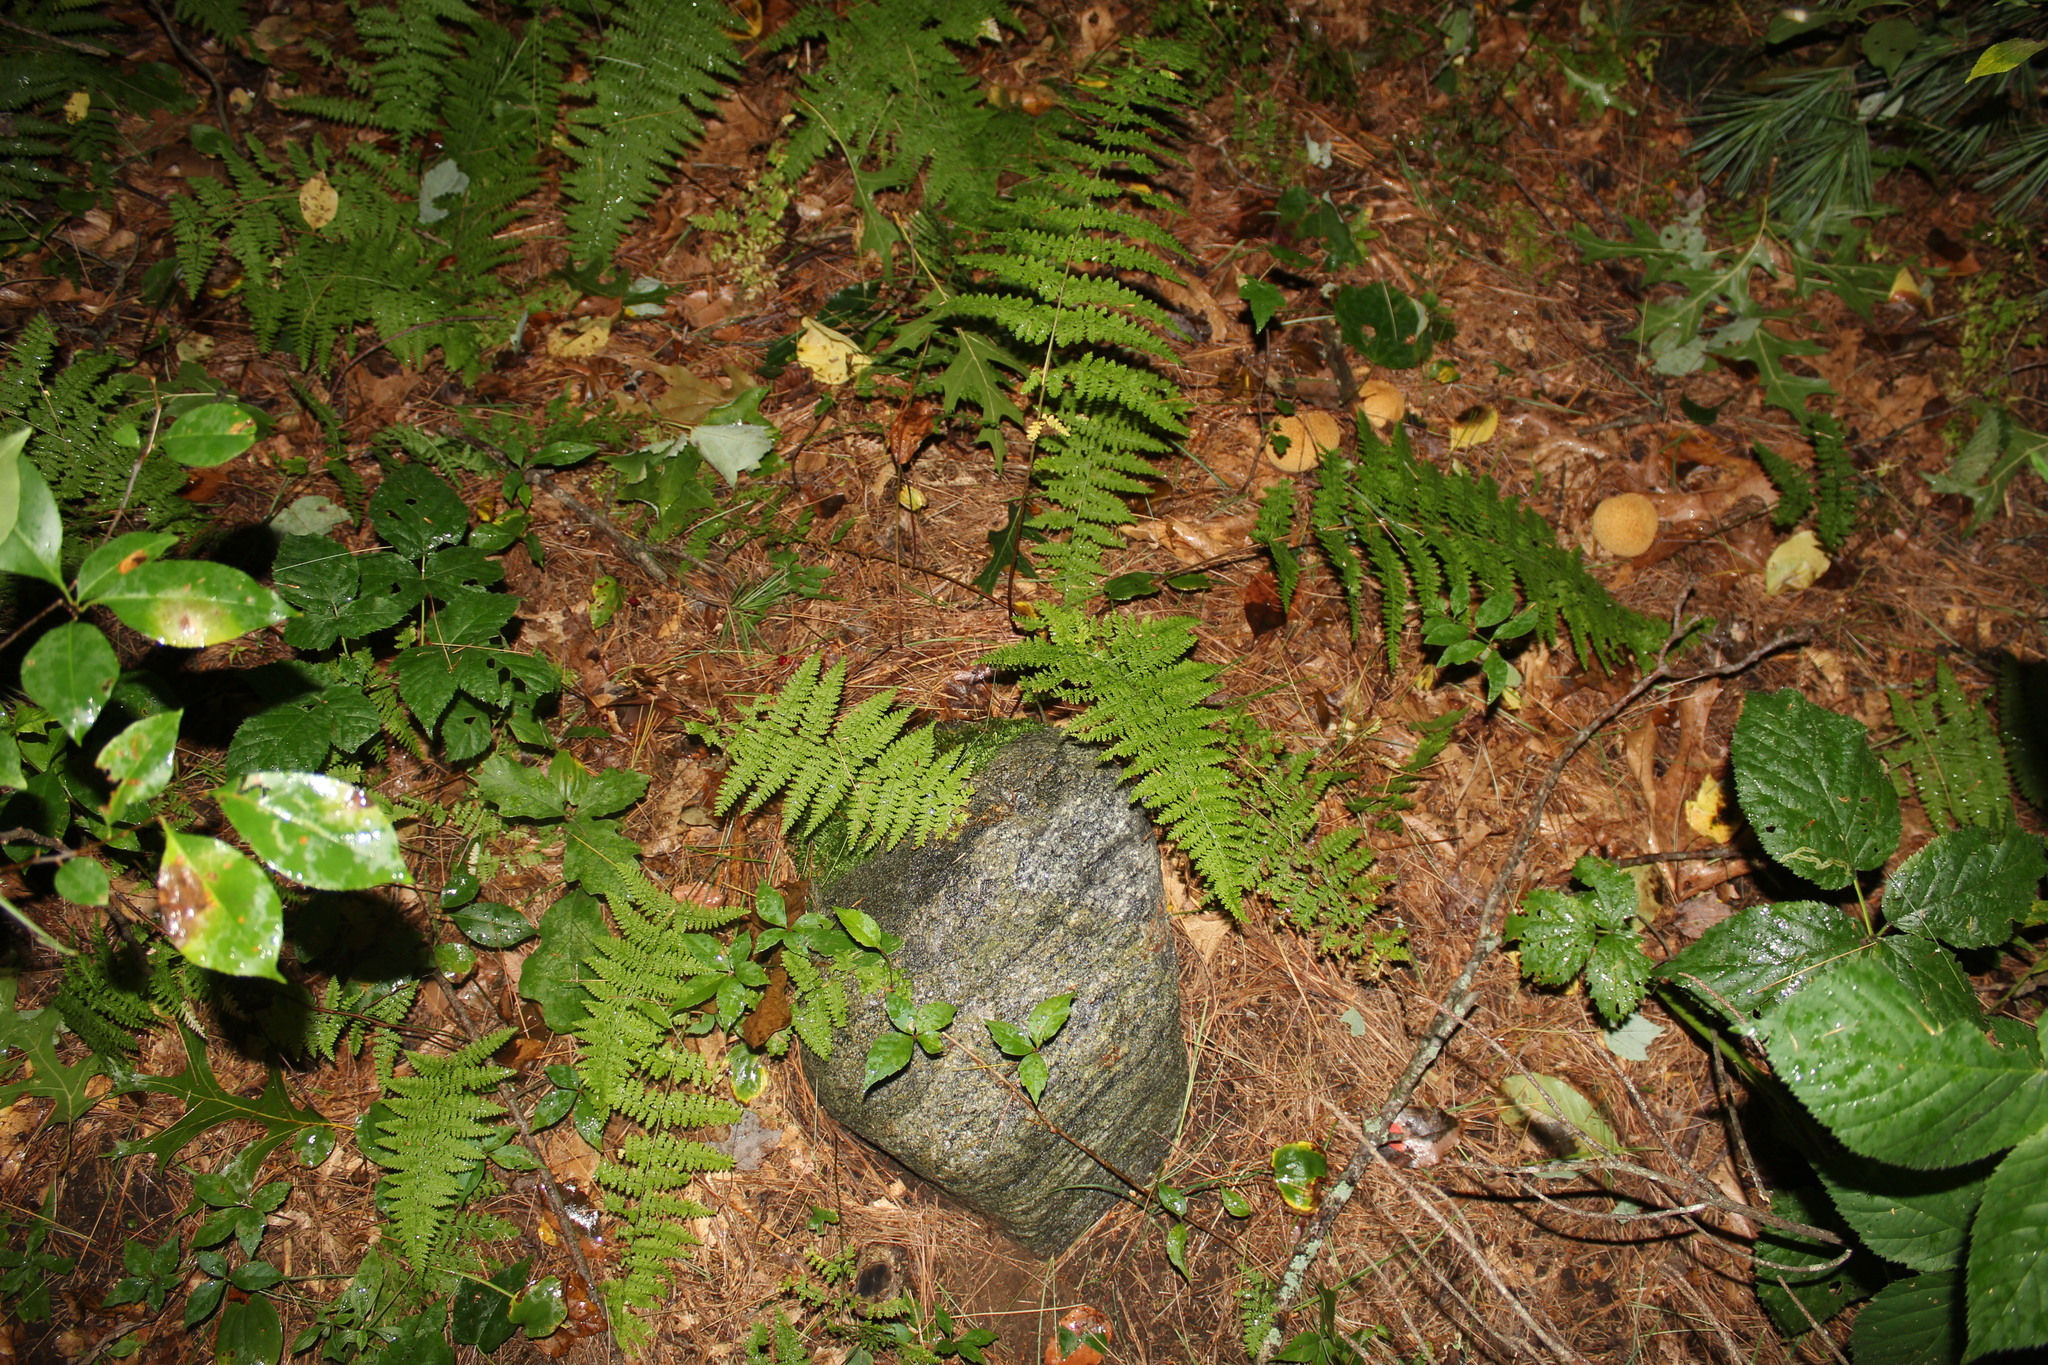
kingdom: Plantae
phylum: Tracheophyta
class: Polypodiopsida
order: Polypodiales
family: Dennstaedtiaceae
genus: Sitobolium
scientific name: Sitobolium punctilobum
